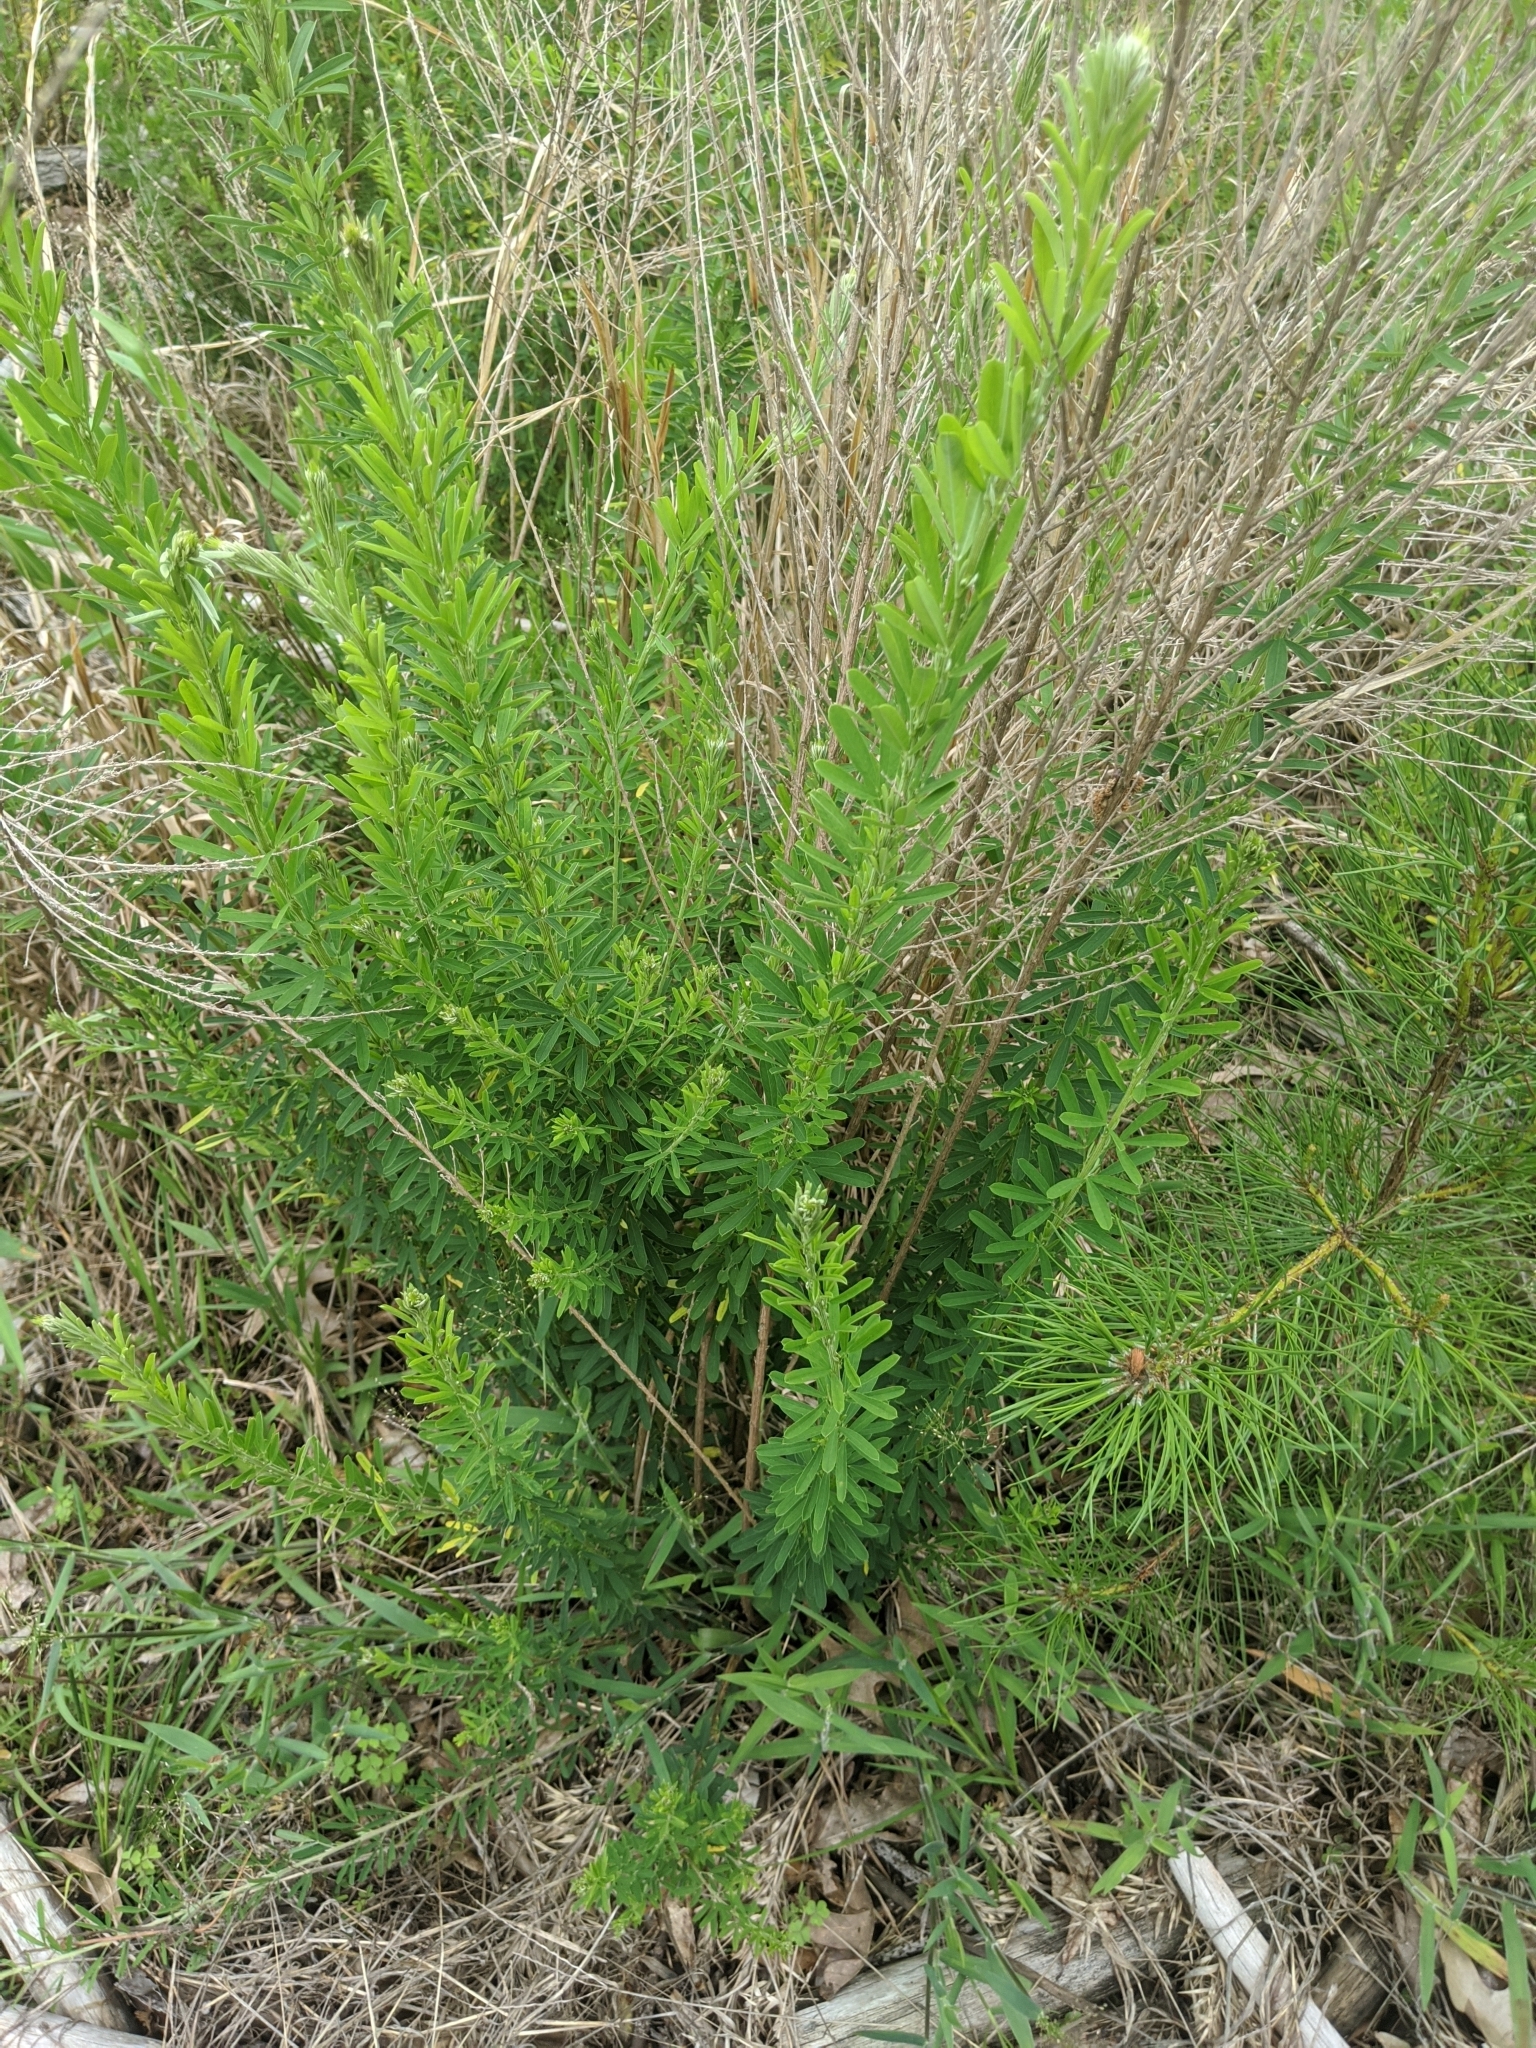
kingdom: Plantae
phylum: Tracheophyta
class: Magnoliopsida
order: Fabales
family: Fabaceae
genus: Lespedeza
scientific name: Lespedeza cuneata
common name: Chinese bush-clover
